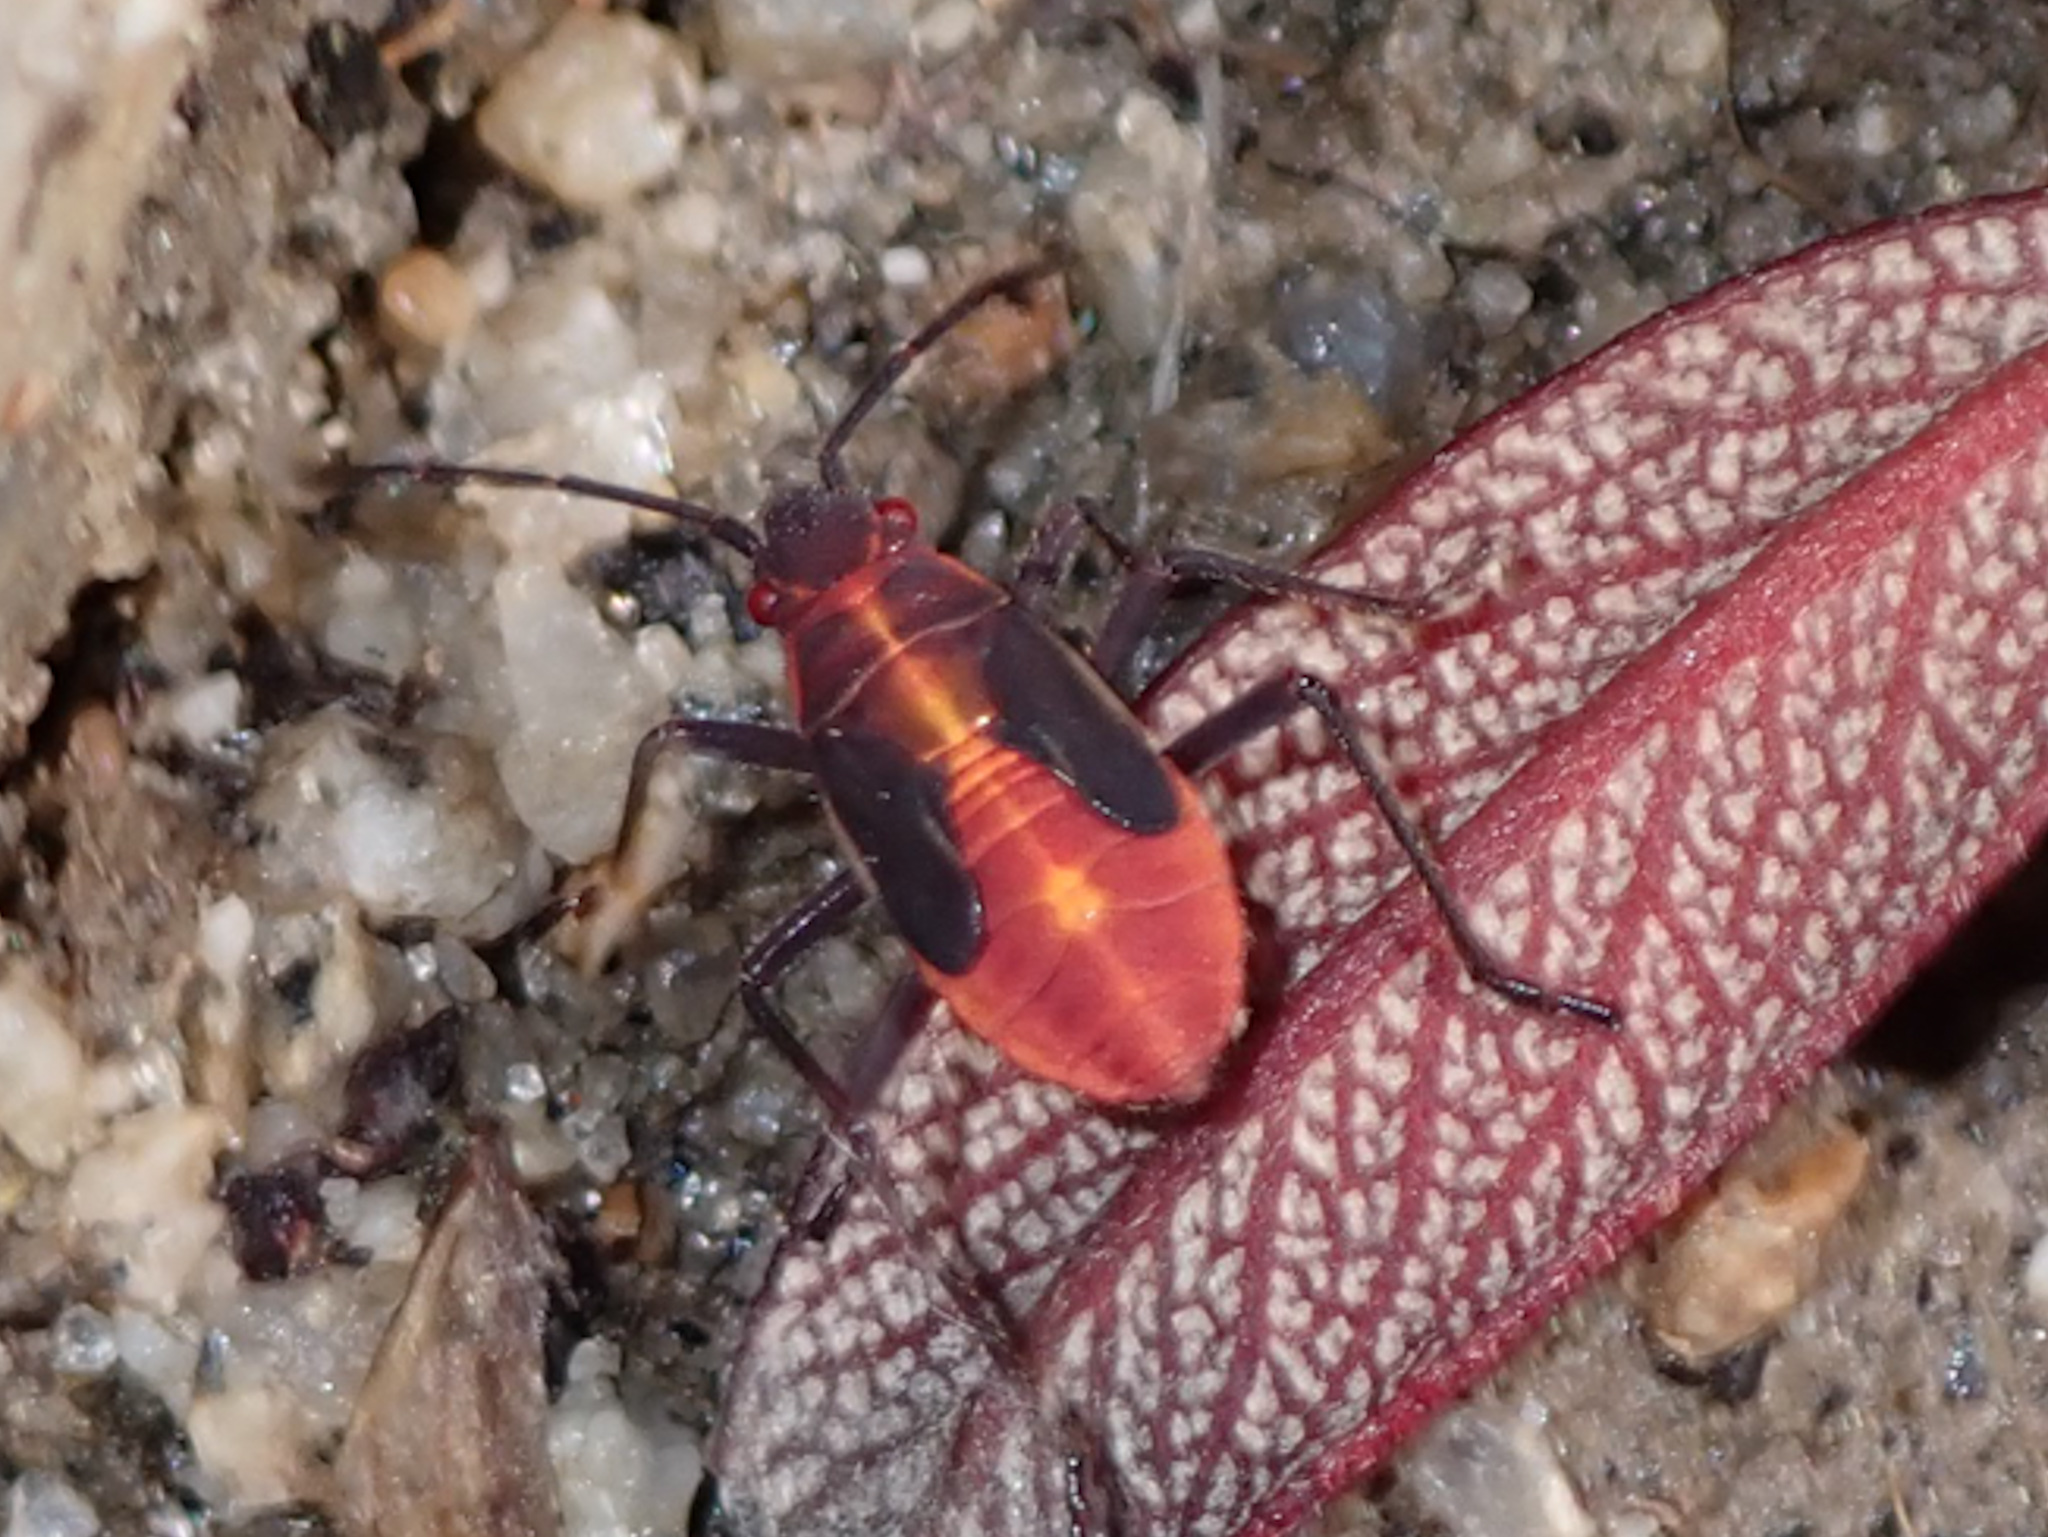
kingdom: Animalia
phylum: Arthropoda
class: Insecta
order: Hemiptera
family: Rhopalidae
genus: Boisea
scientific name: Boisea trivittata
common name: Boxelder bug
